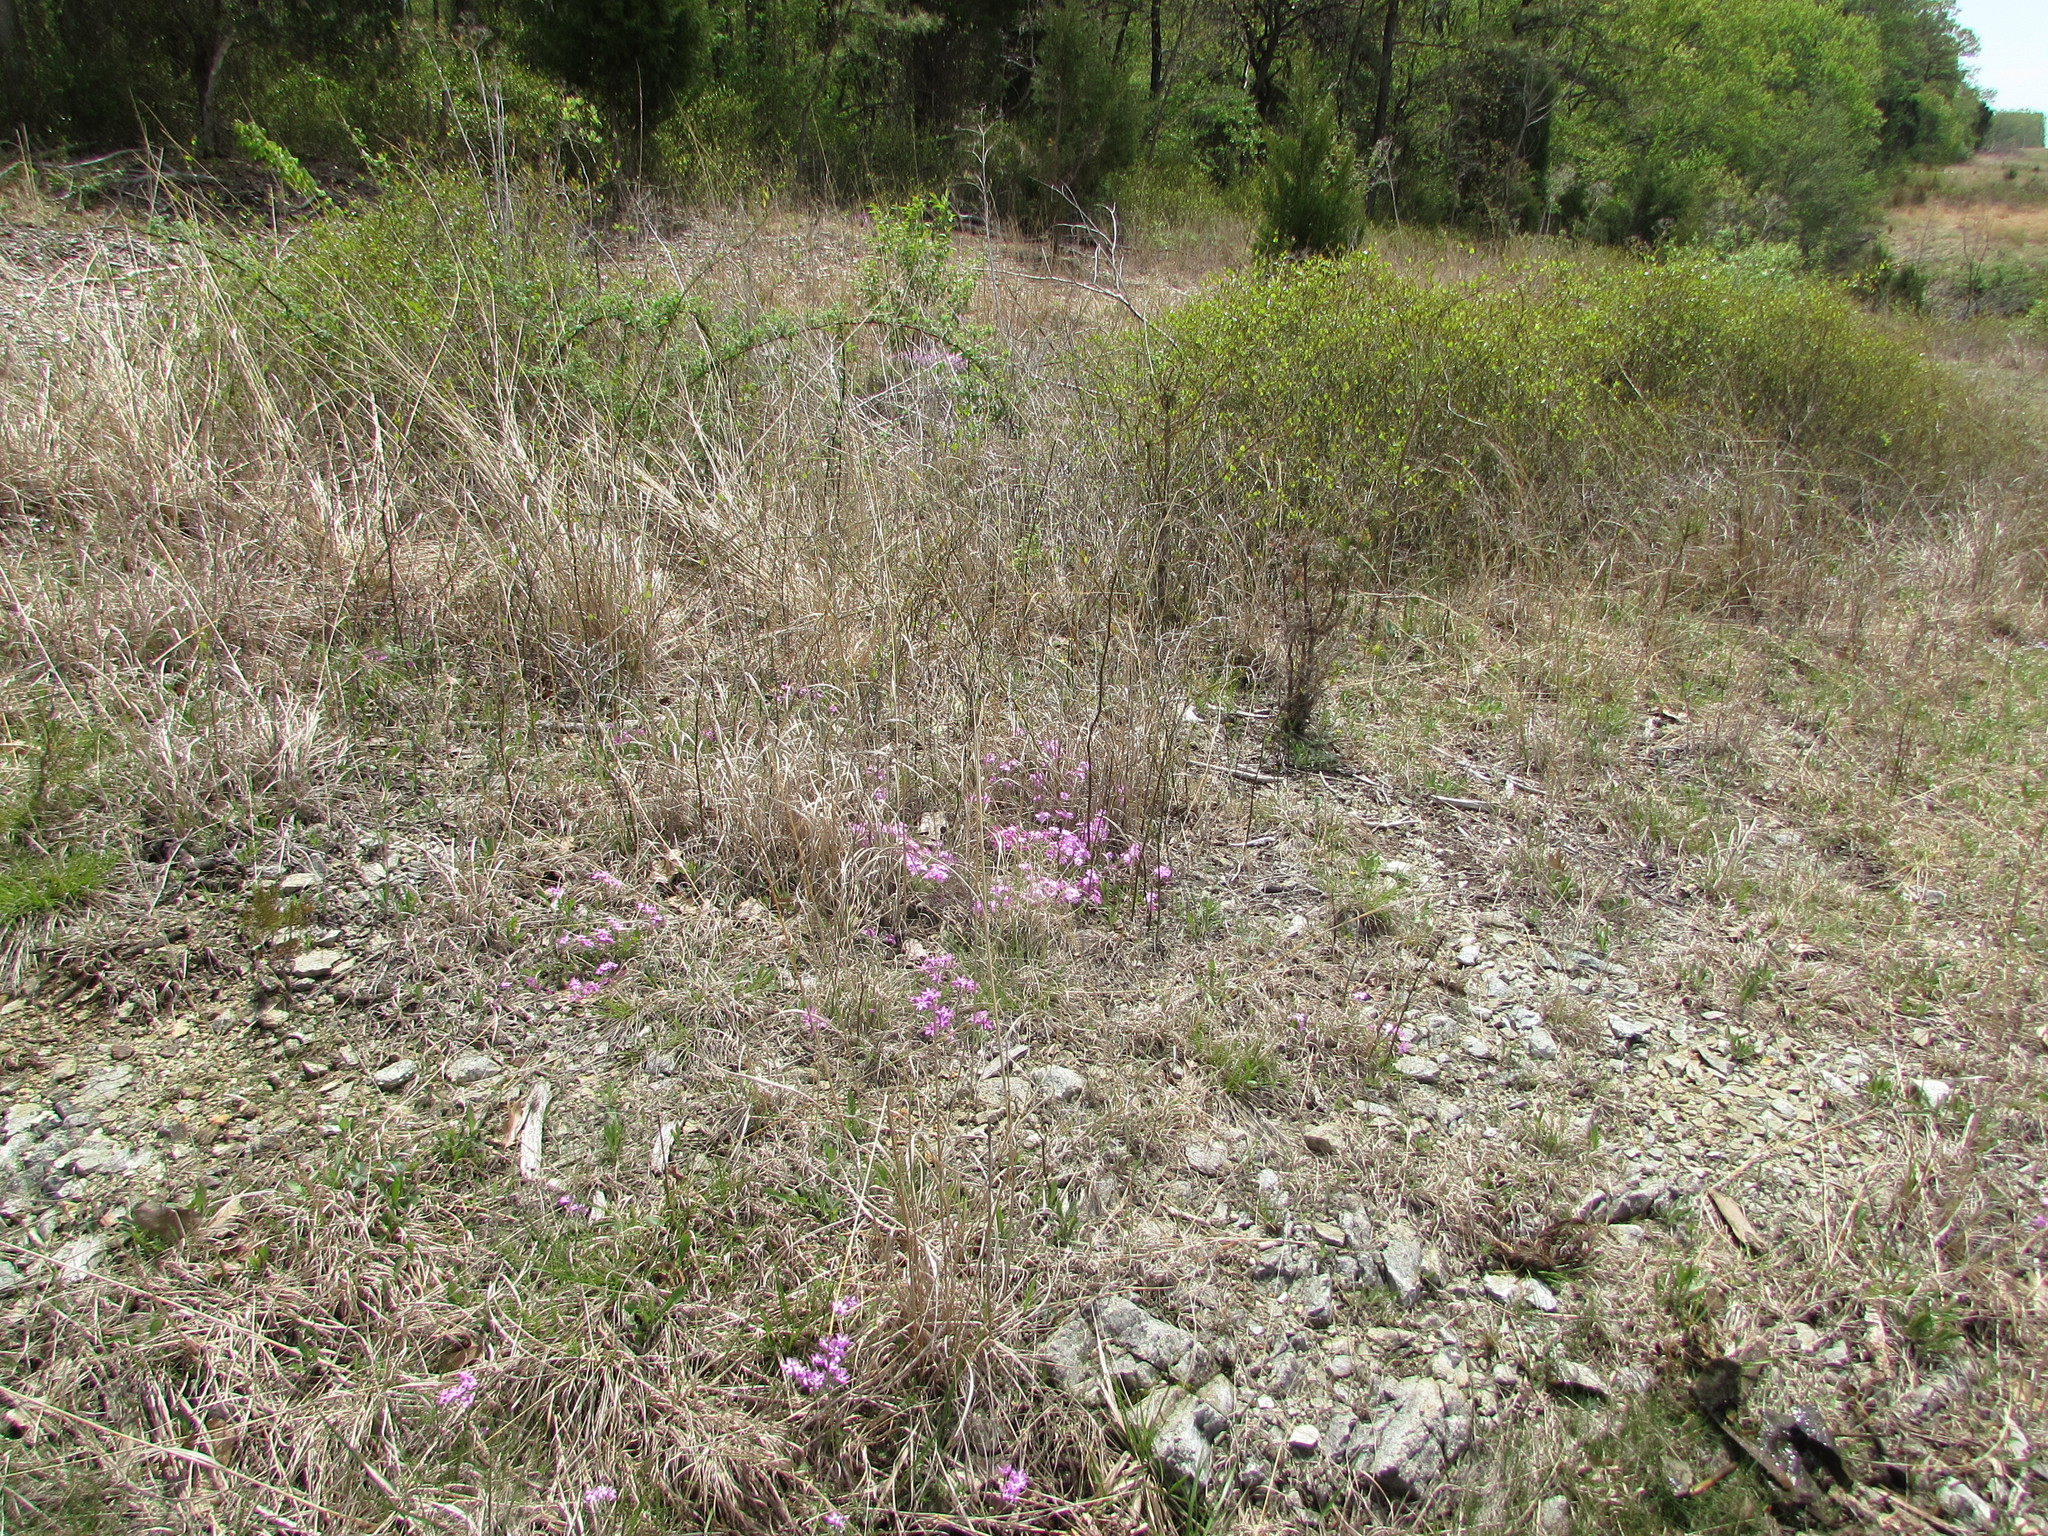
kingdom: Plantae
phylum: Tracheophyta
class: Magnoliopsida
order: Ericales
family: Polemoniaceae
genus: Phlox
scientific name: Phlox subulata
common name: Moss phlox
